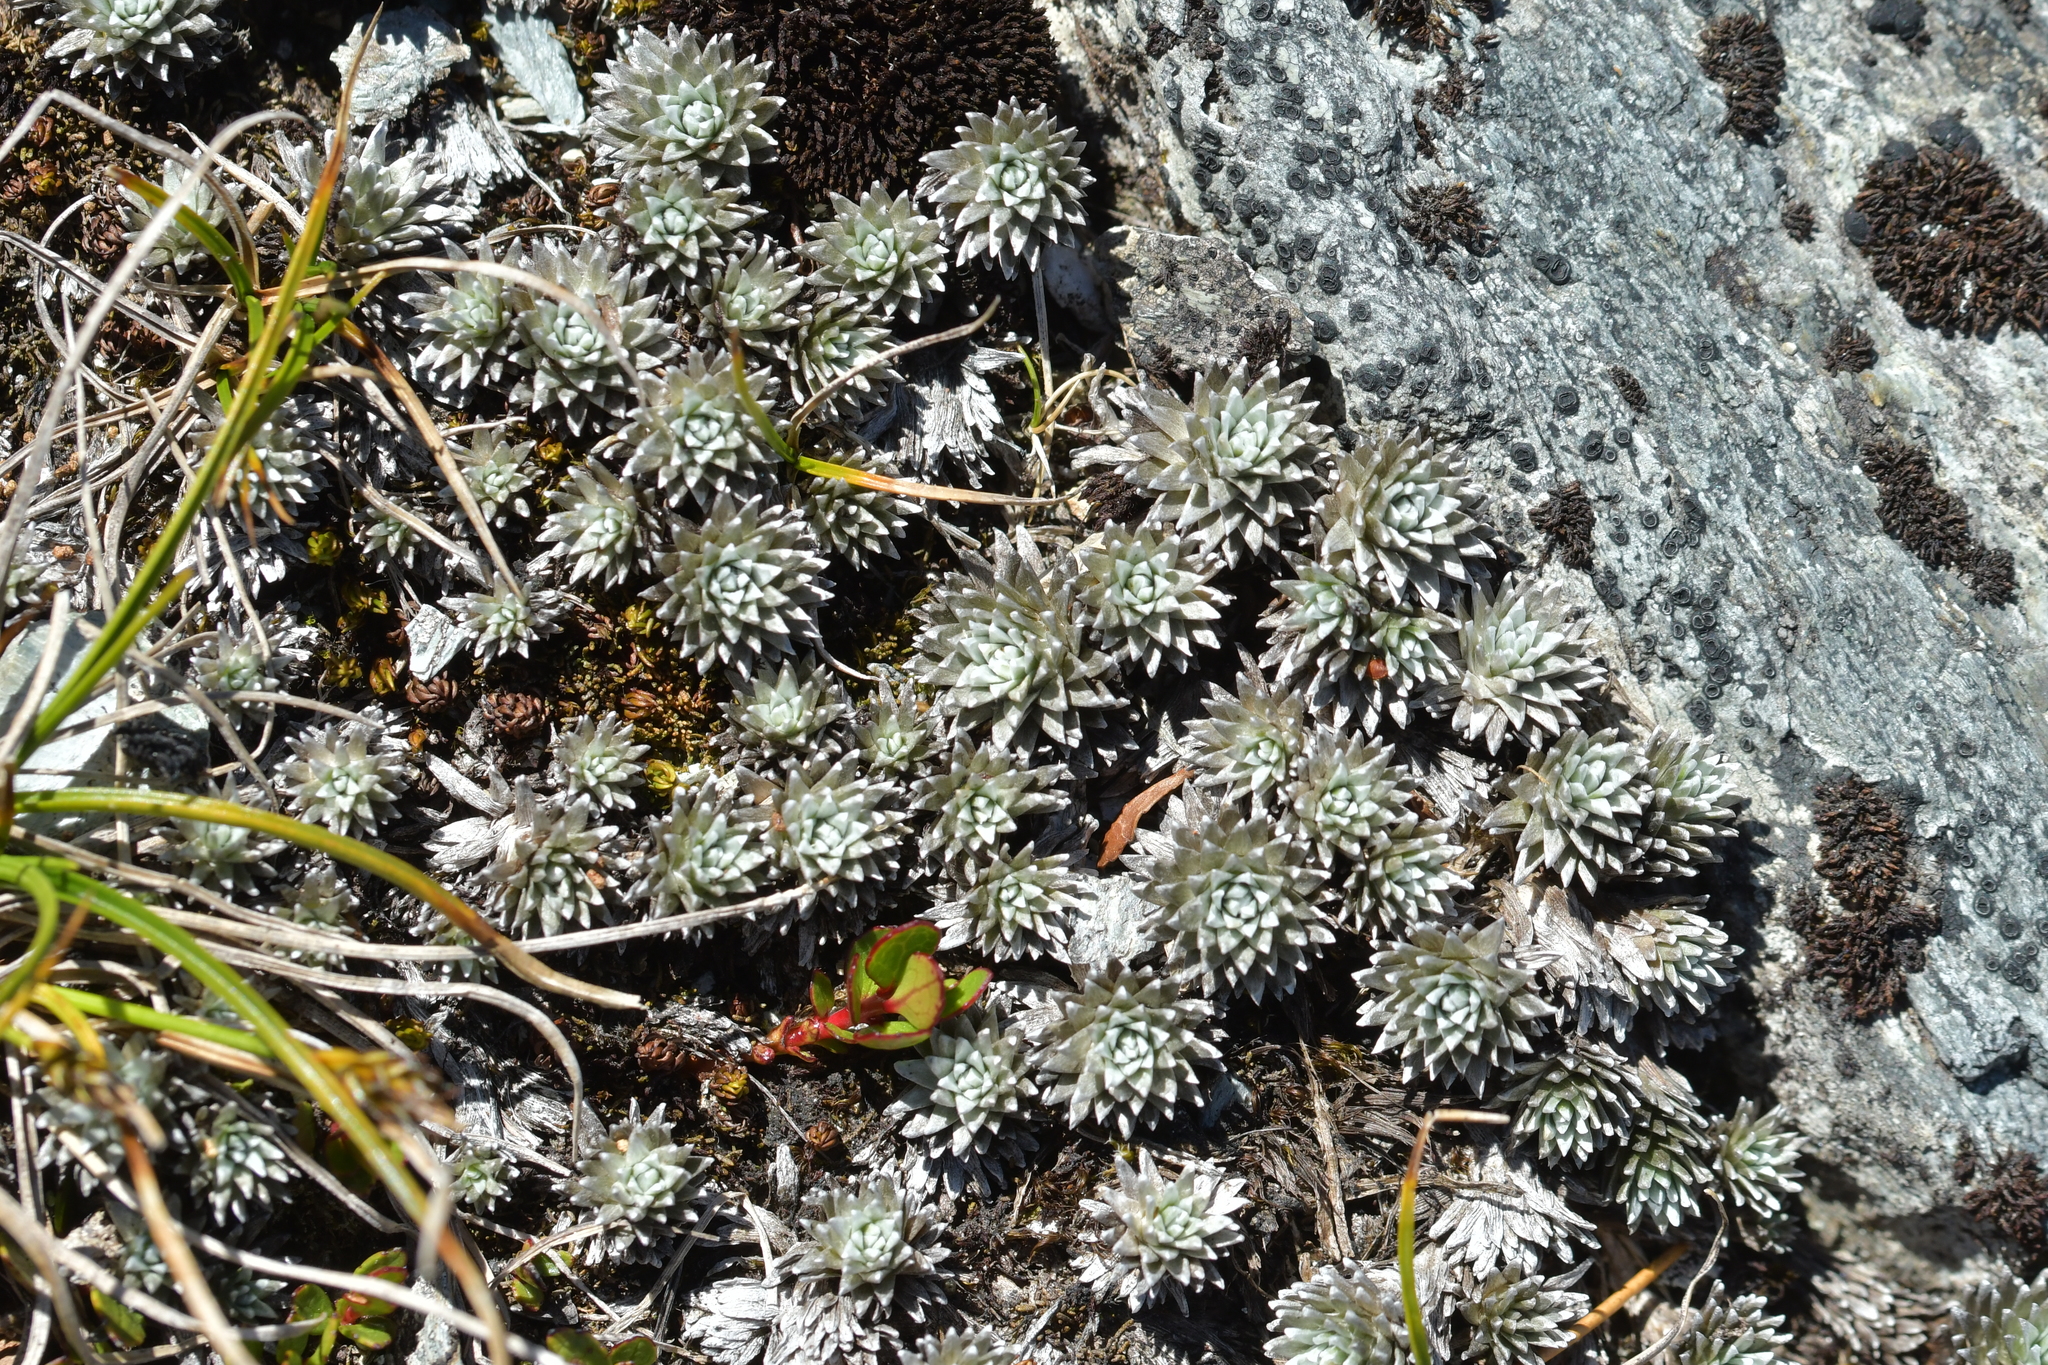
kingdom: Plantae
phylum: Tracheophyta
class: Magnoliopsida
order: Asterales
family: Asteraceae
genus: Raoulia
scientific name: Raoulia grandiflora
